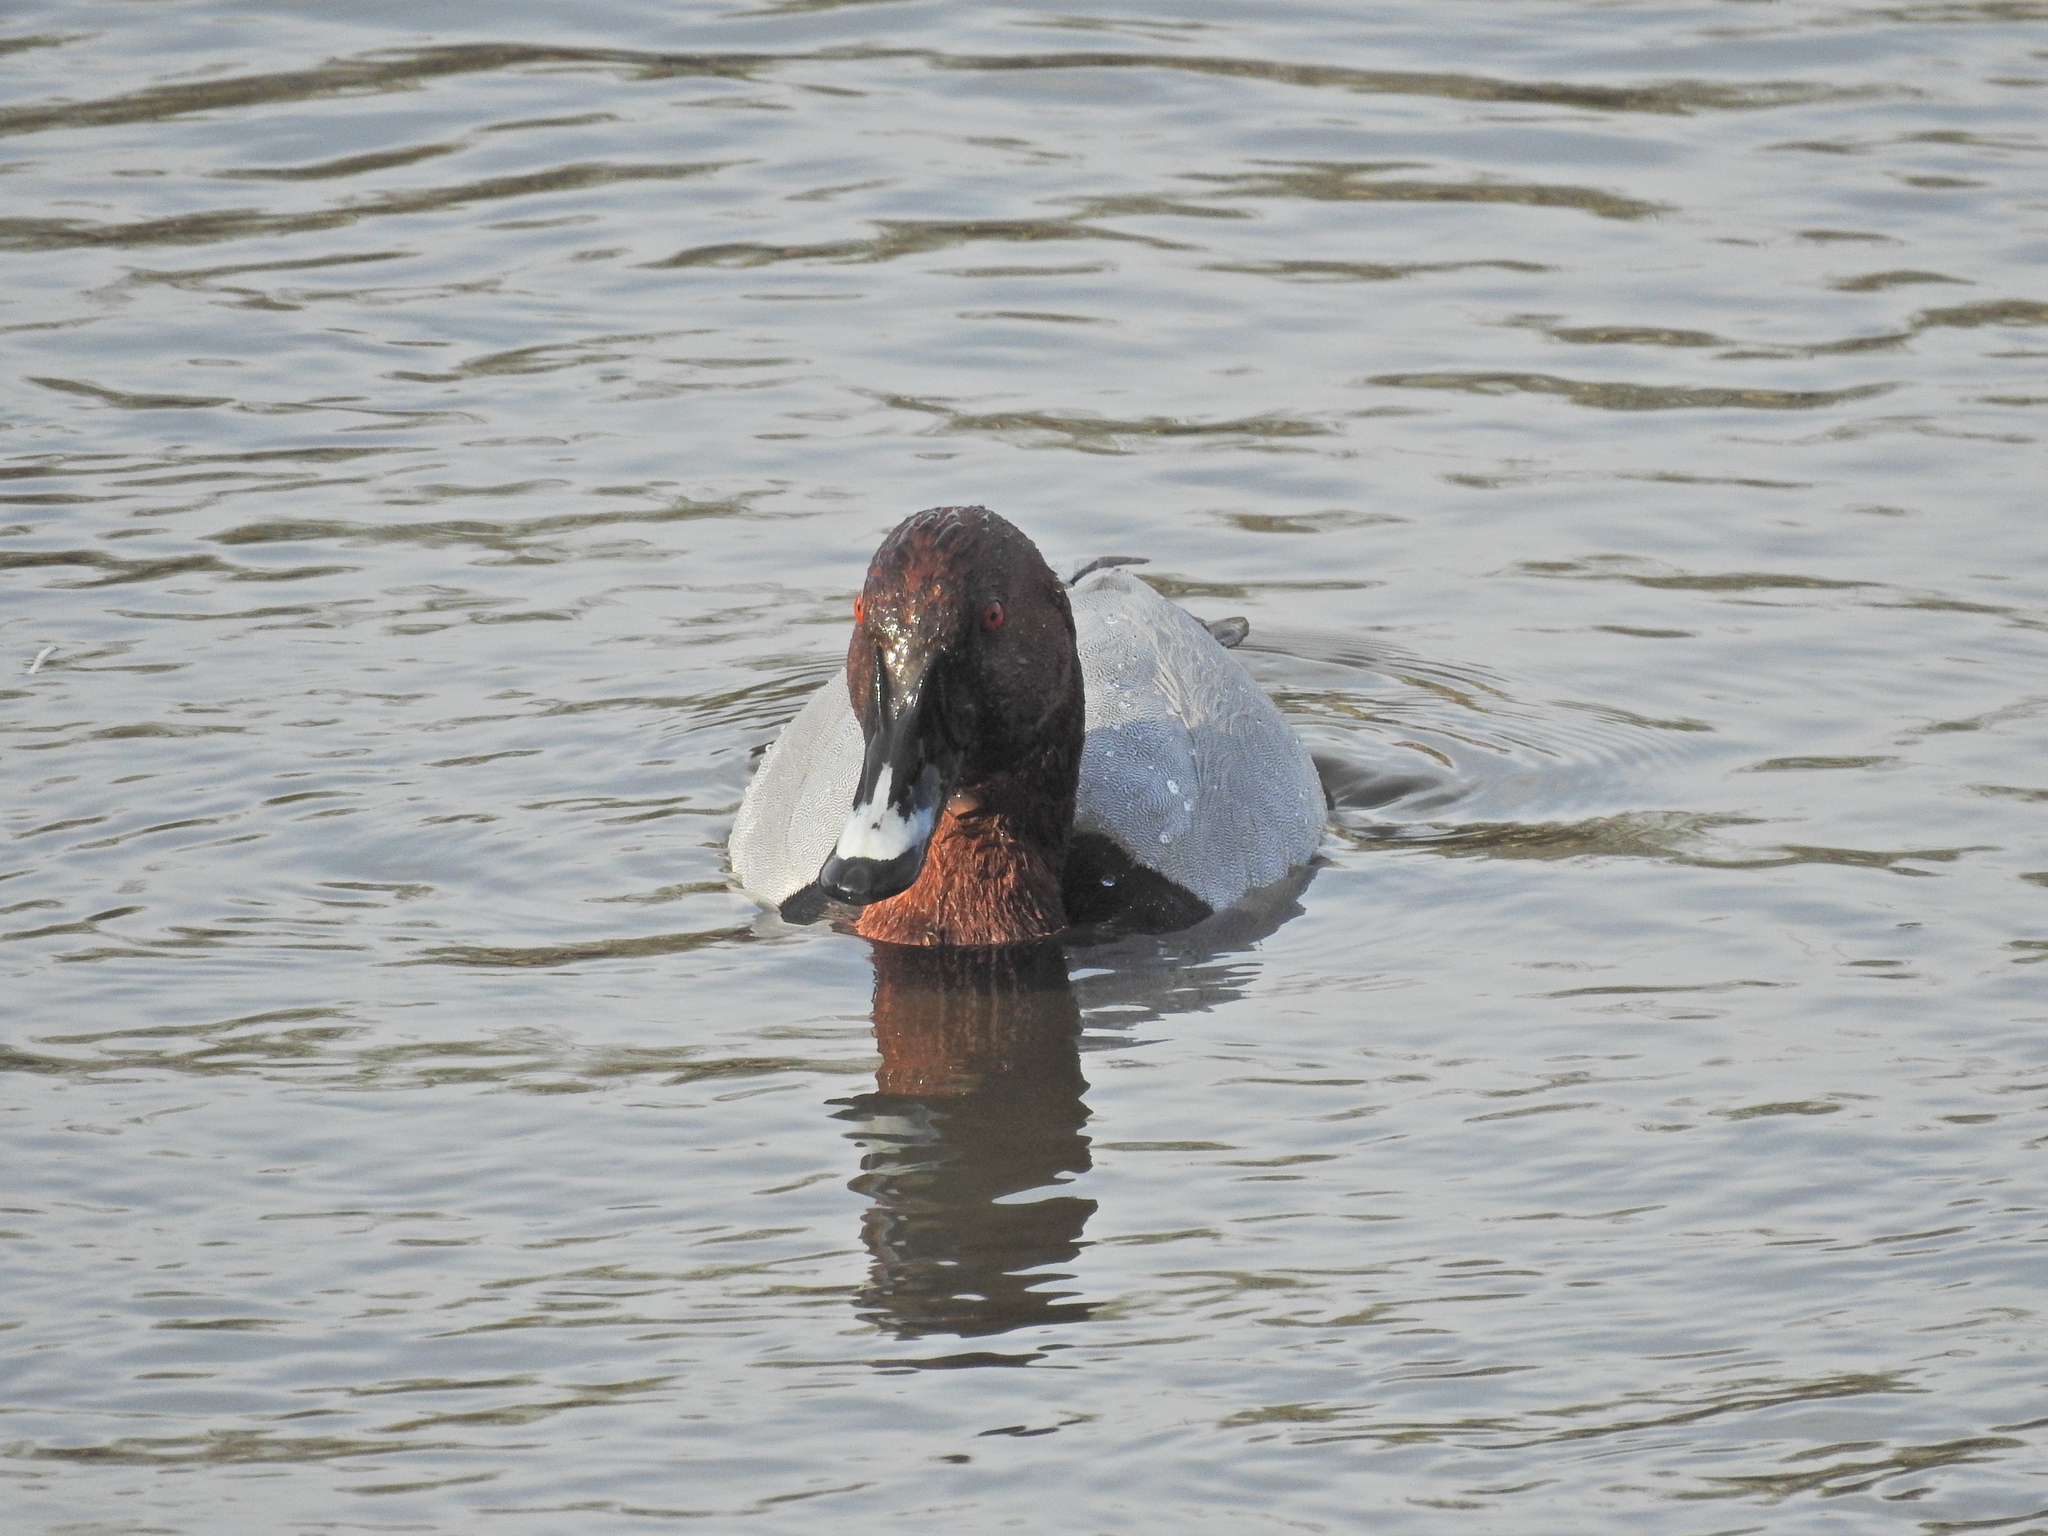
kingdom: Animalia
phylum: Chordata
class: Aves
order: Anseriformes
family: Anatidae
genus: Aythya
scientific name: Aythya ferina
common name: Common pochard
